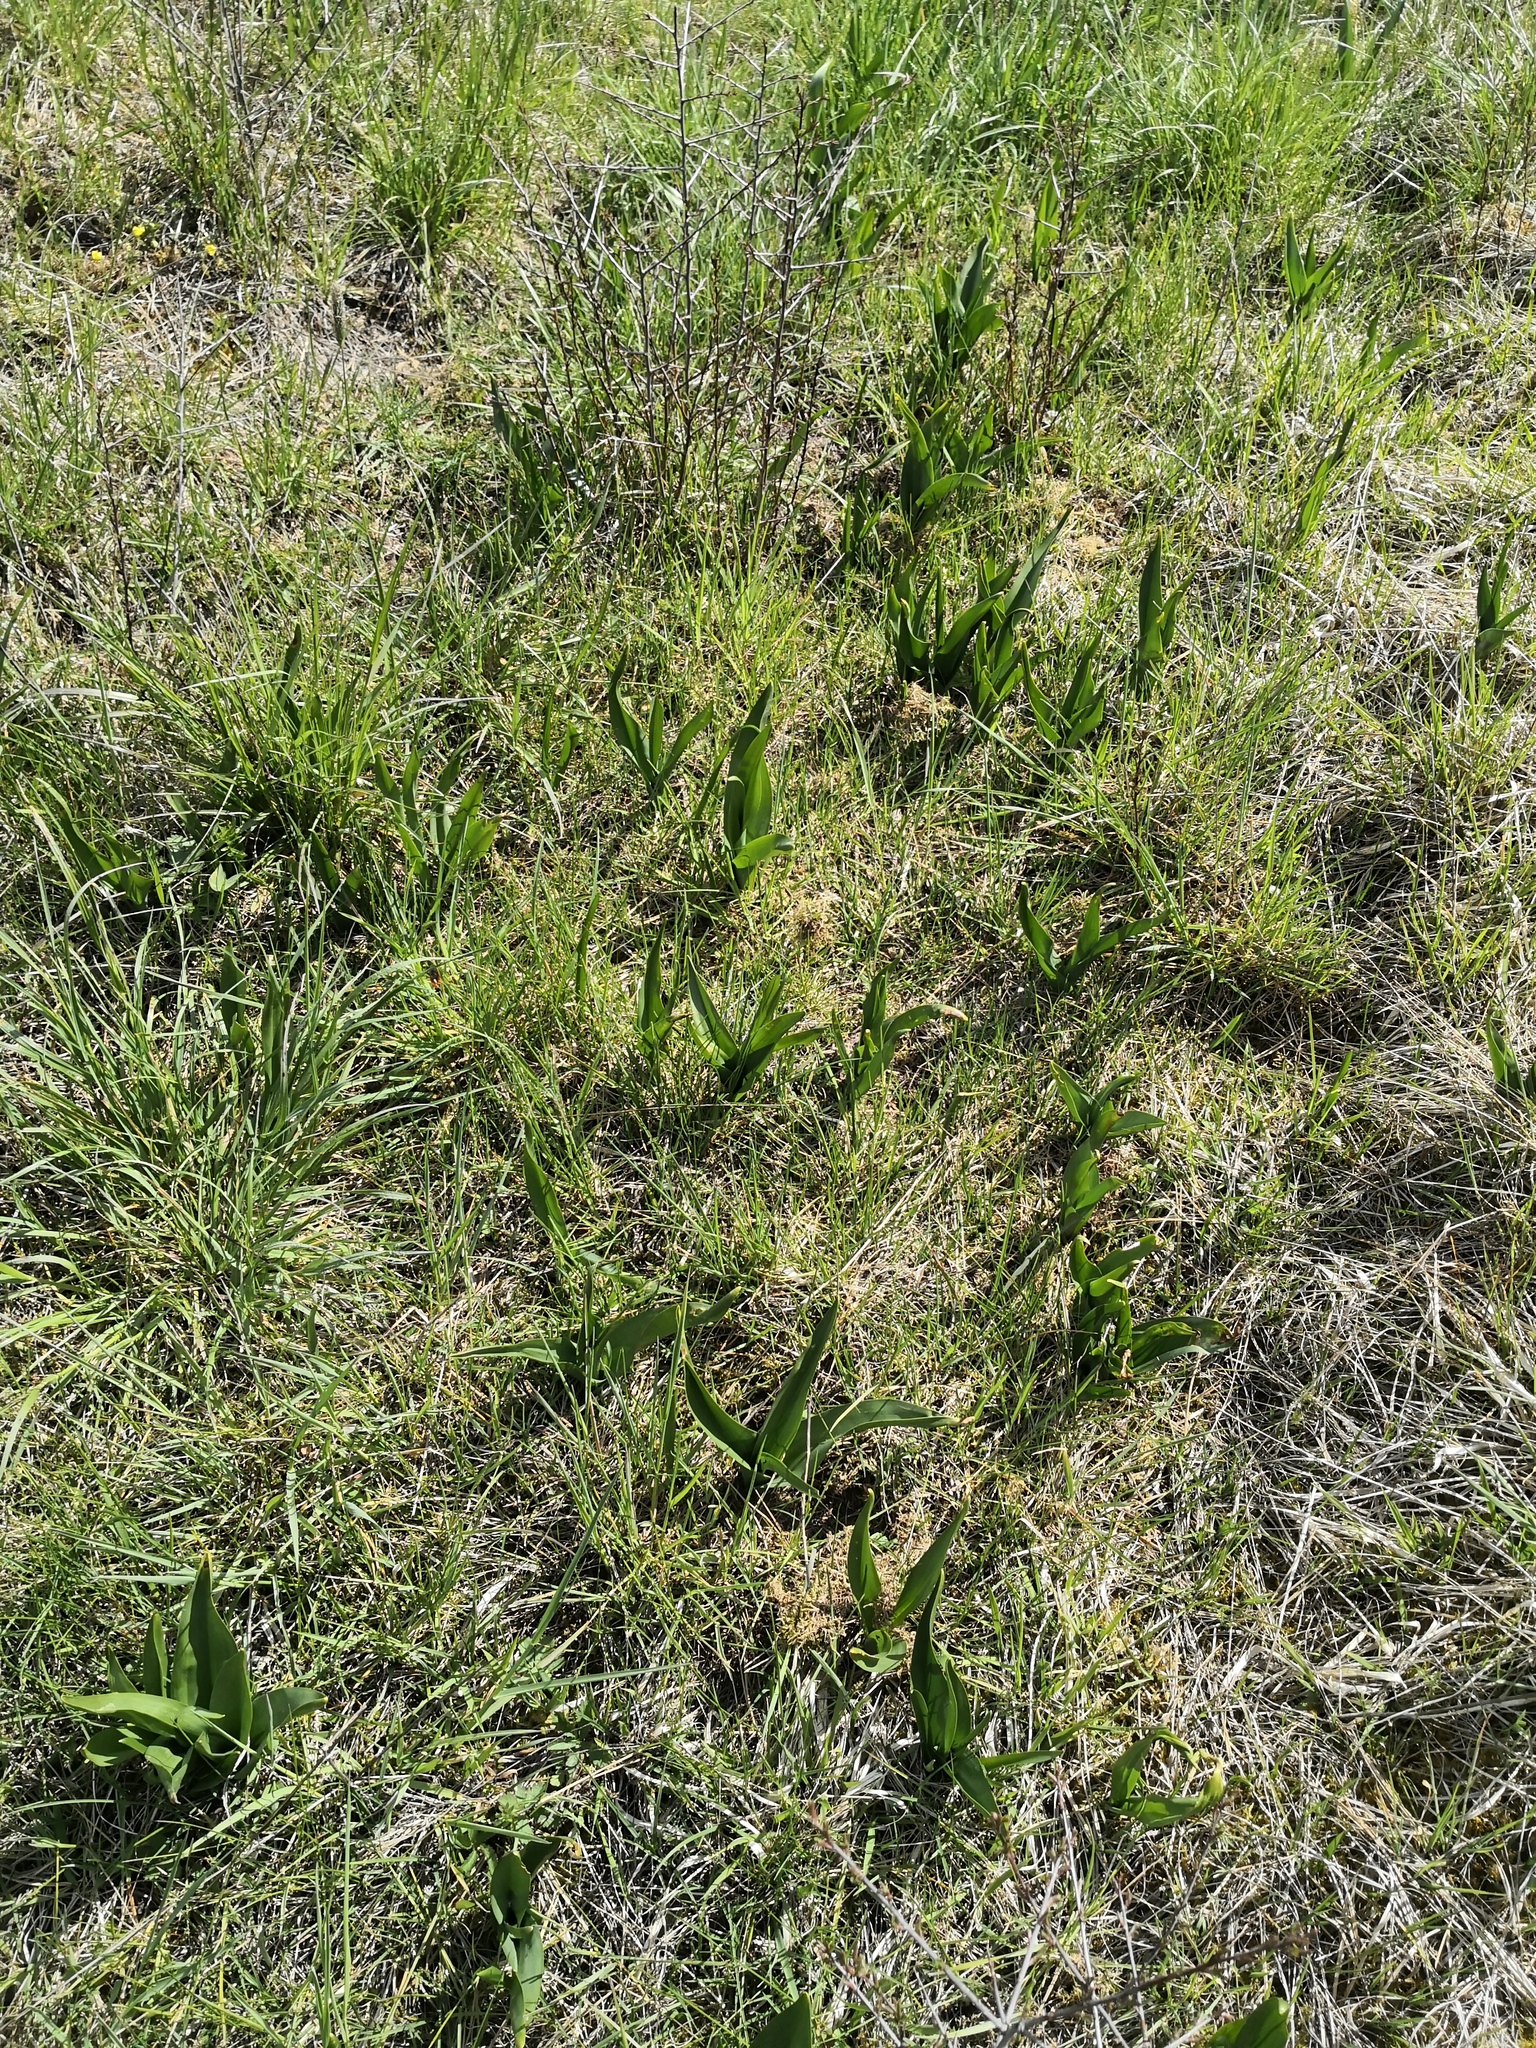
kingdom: Plantae
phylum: Tracheophyta
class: Liliopsida
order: Liliales
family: Colchicaceae
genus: Colchicum
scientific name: Colchicum autumnale
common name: Autumn crocus
